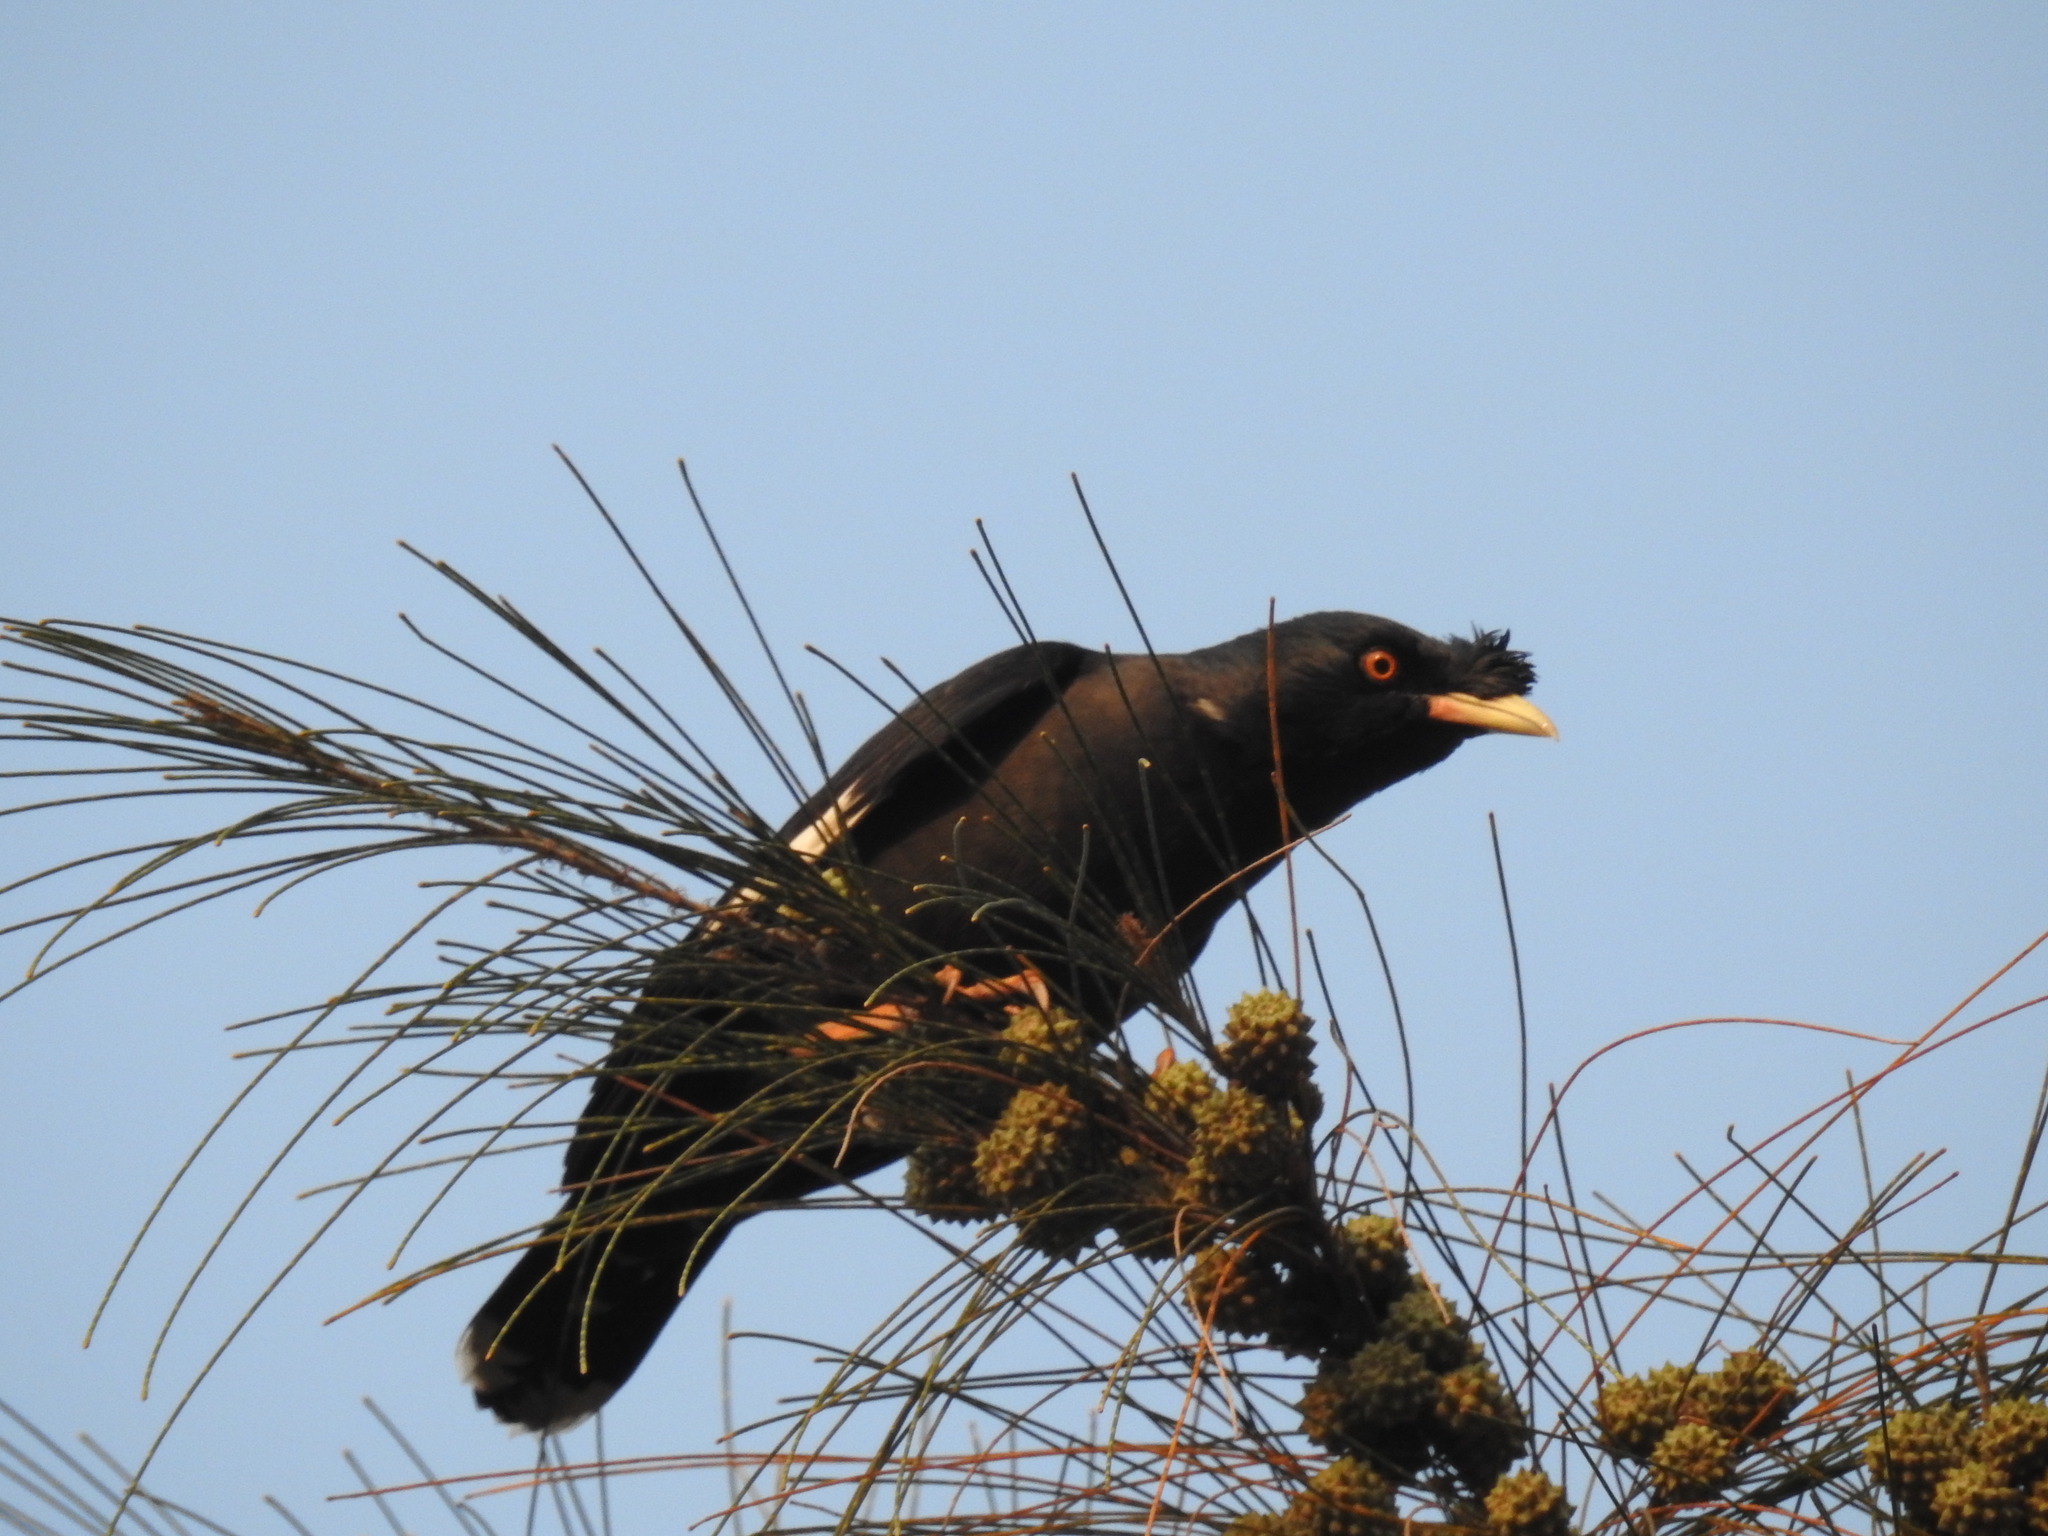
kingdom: Animalia
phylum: Chordata
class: Aves
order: Passeriformes
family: Sturnidae
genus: Acridotheres
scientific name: Acridotheres cristatellus
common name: Crested myna
